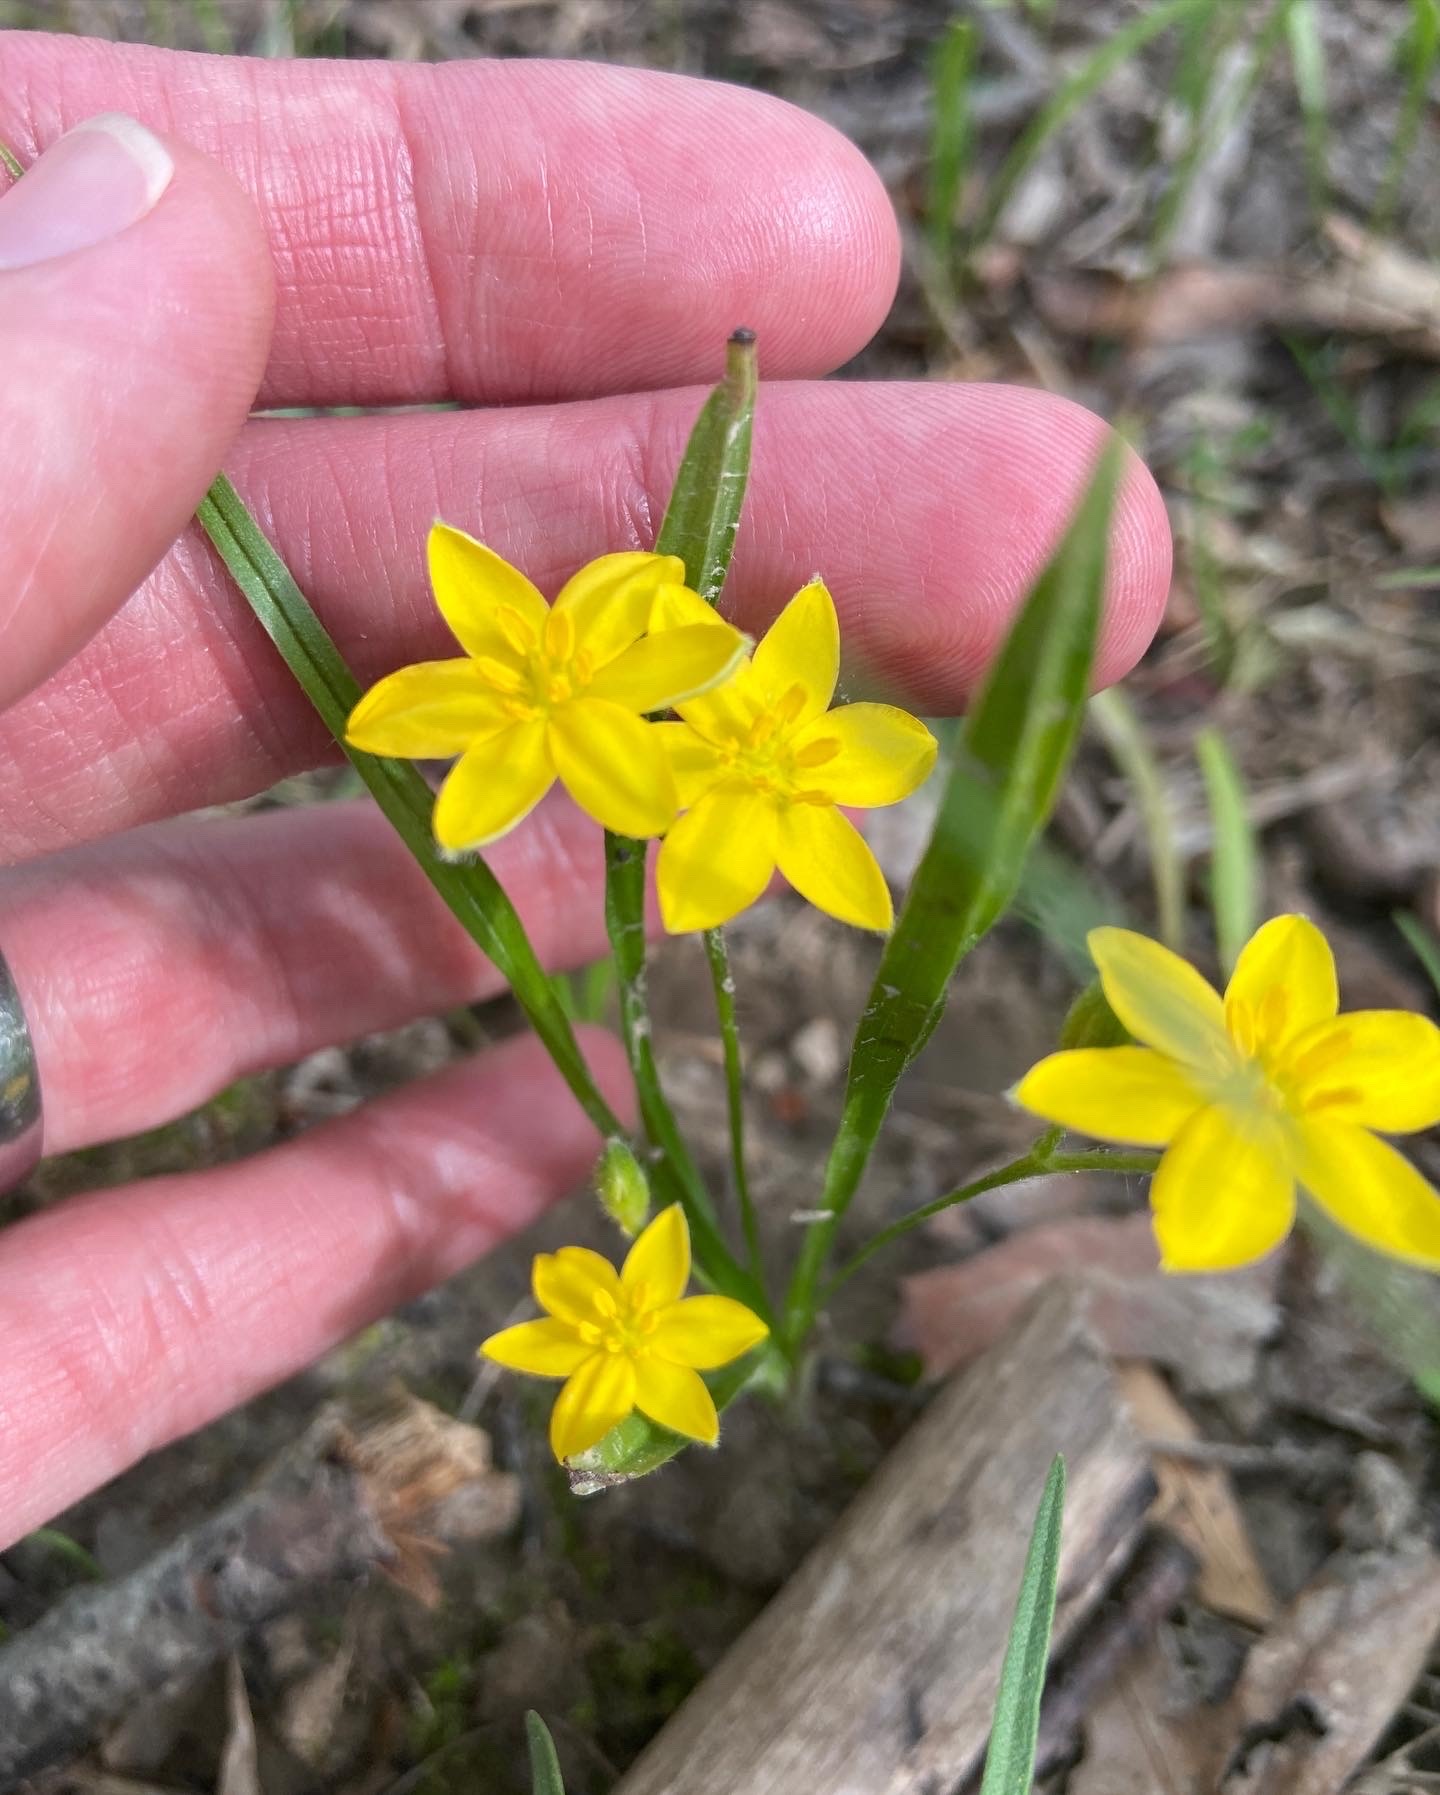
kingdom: Plantae
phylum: Tracheophyta
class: Liliopsida
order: Asparagales
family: Hypoxidaceae
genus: Hypoxis
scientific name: Hypoxis hirsuta
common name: Common goldstar
